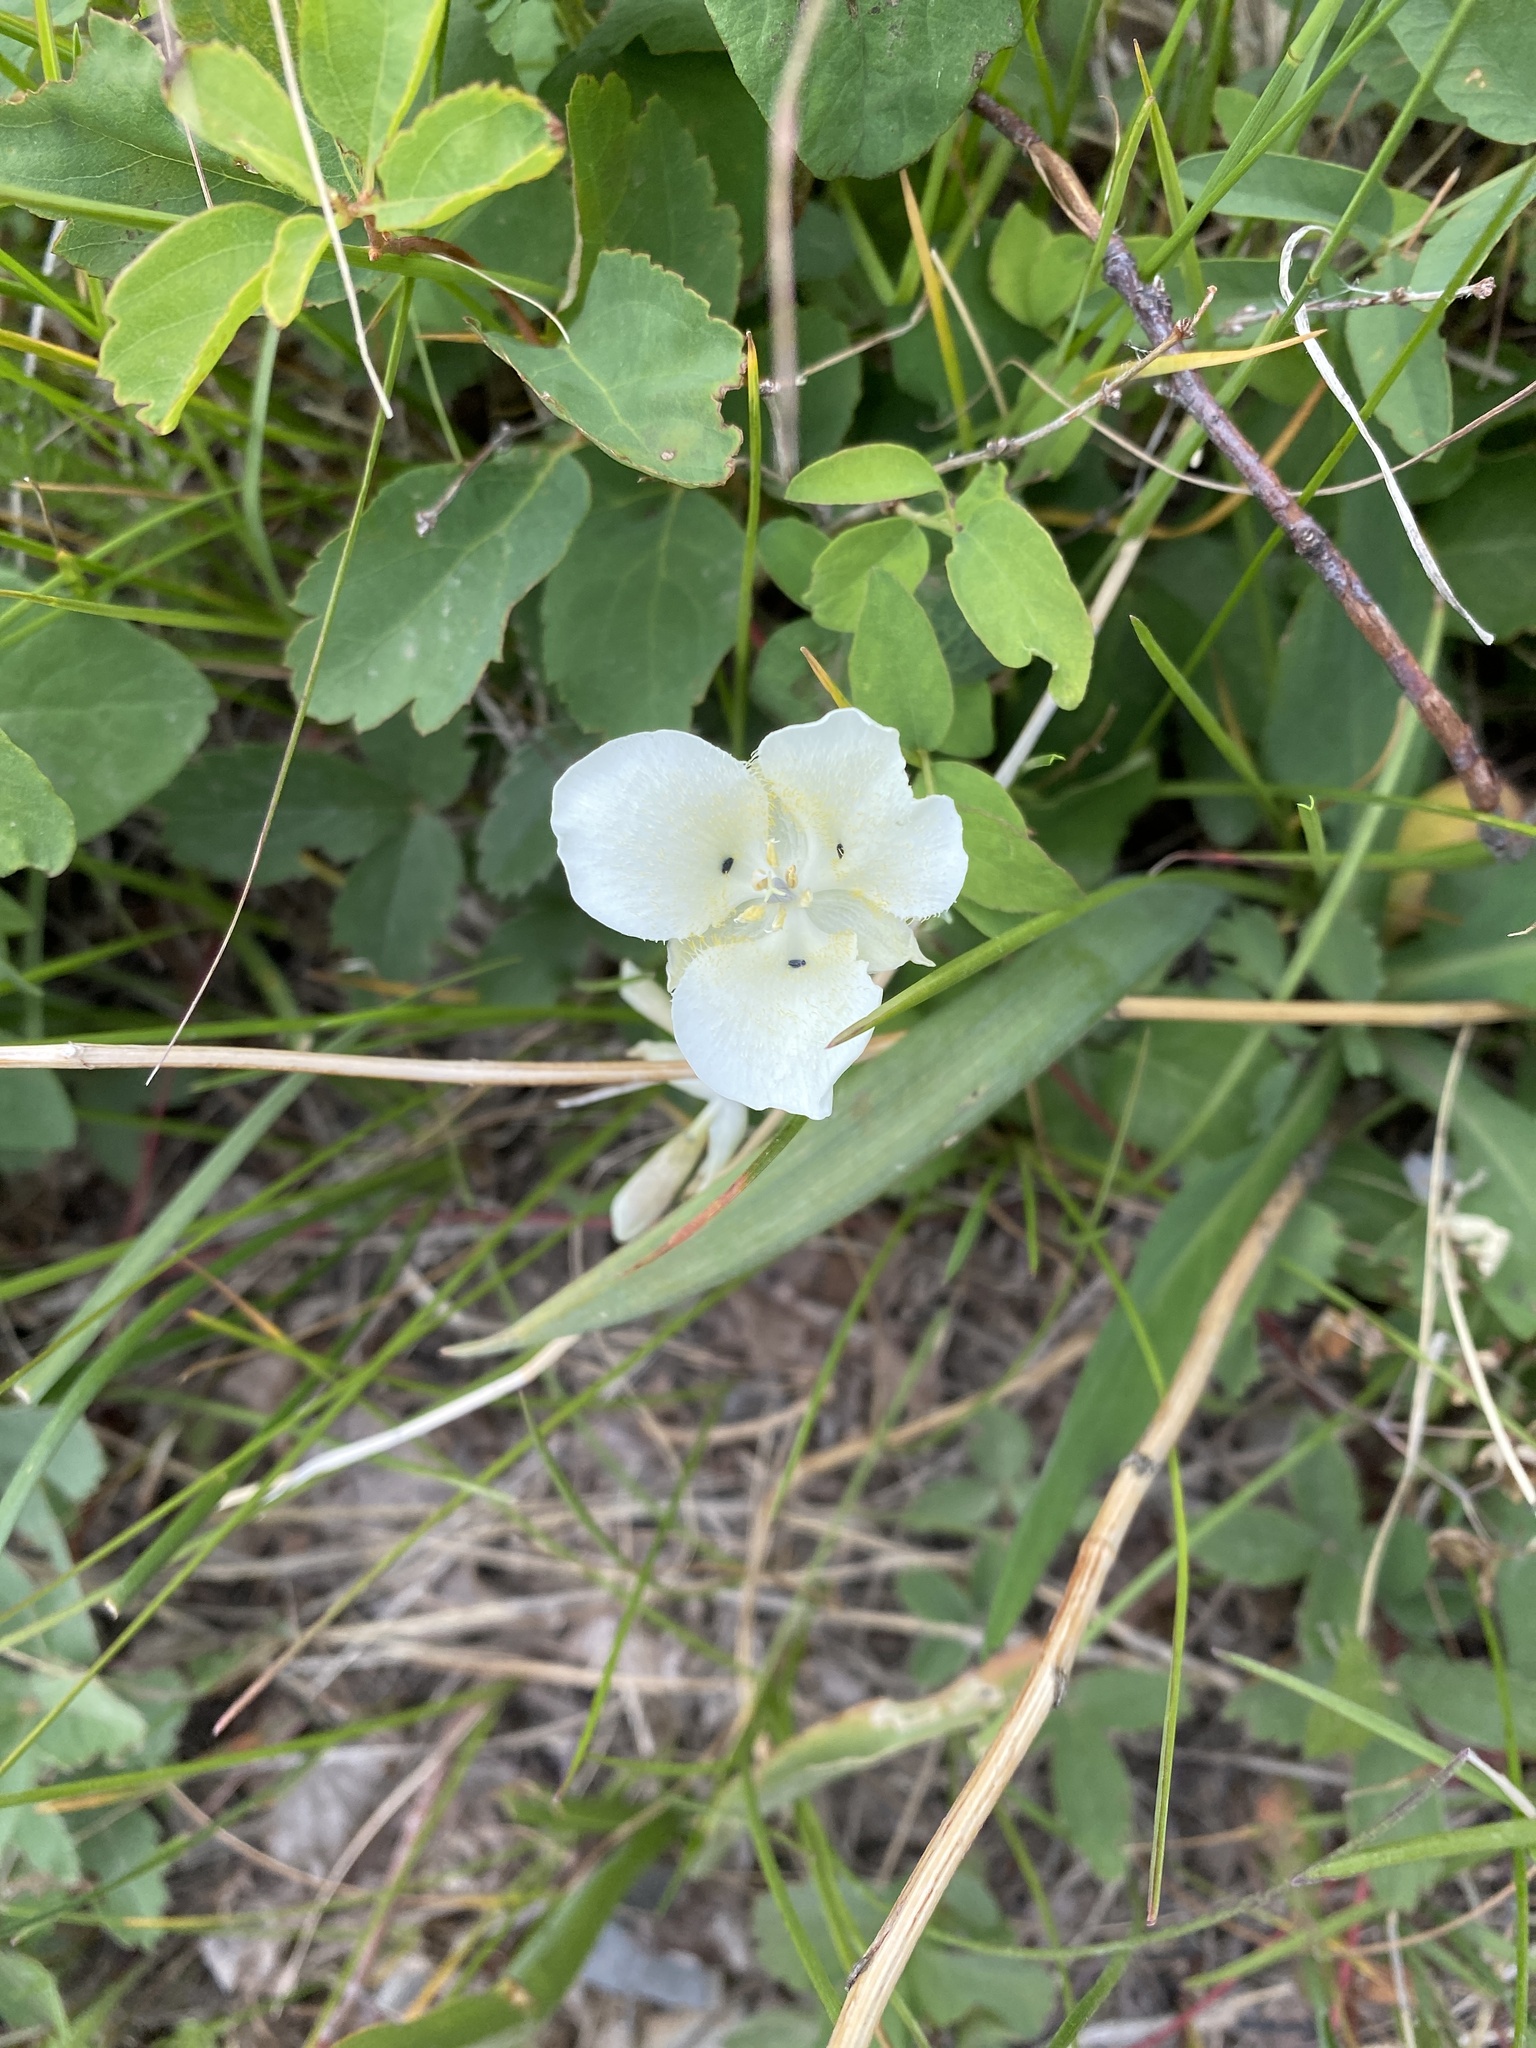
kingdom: Plantae
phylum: Tracheophyta
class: Liliopsida
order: Liliales
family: Liliaceae
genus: Calochortus
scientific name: Calochortus apiculatus
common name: Baker's mariposa lily
